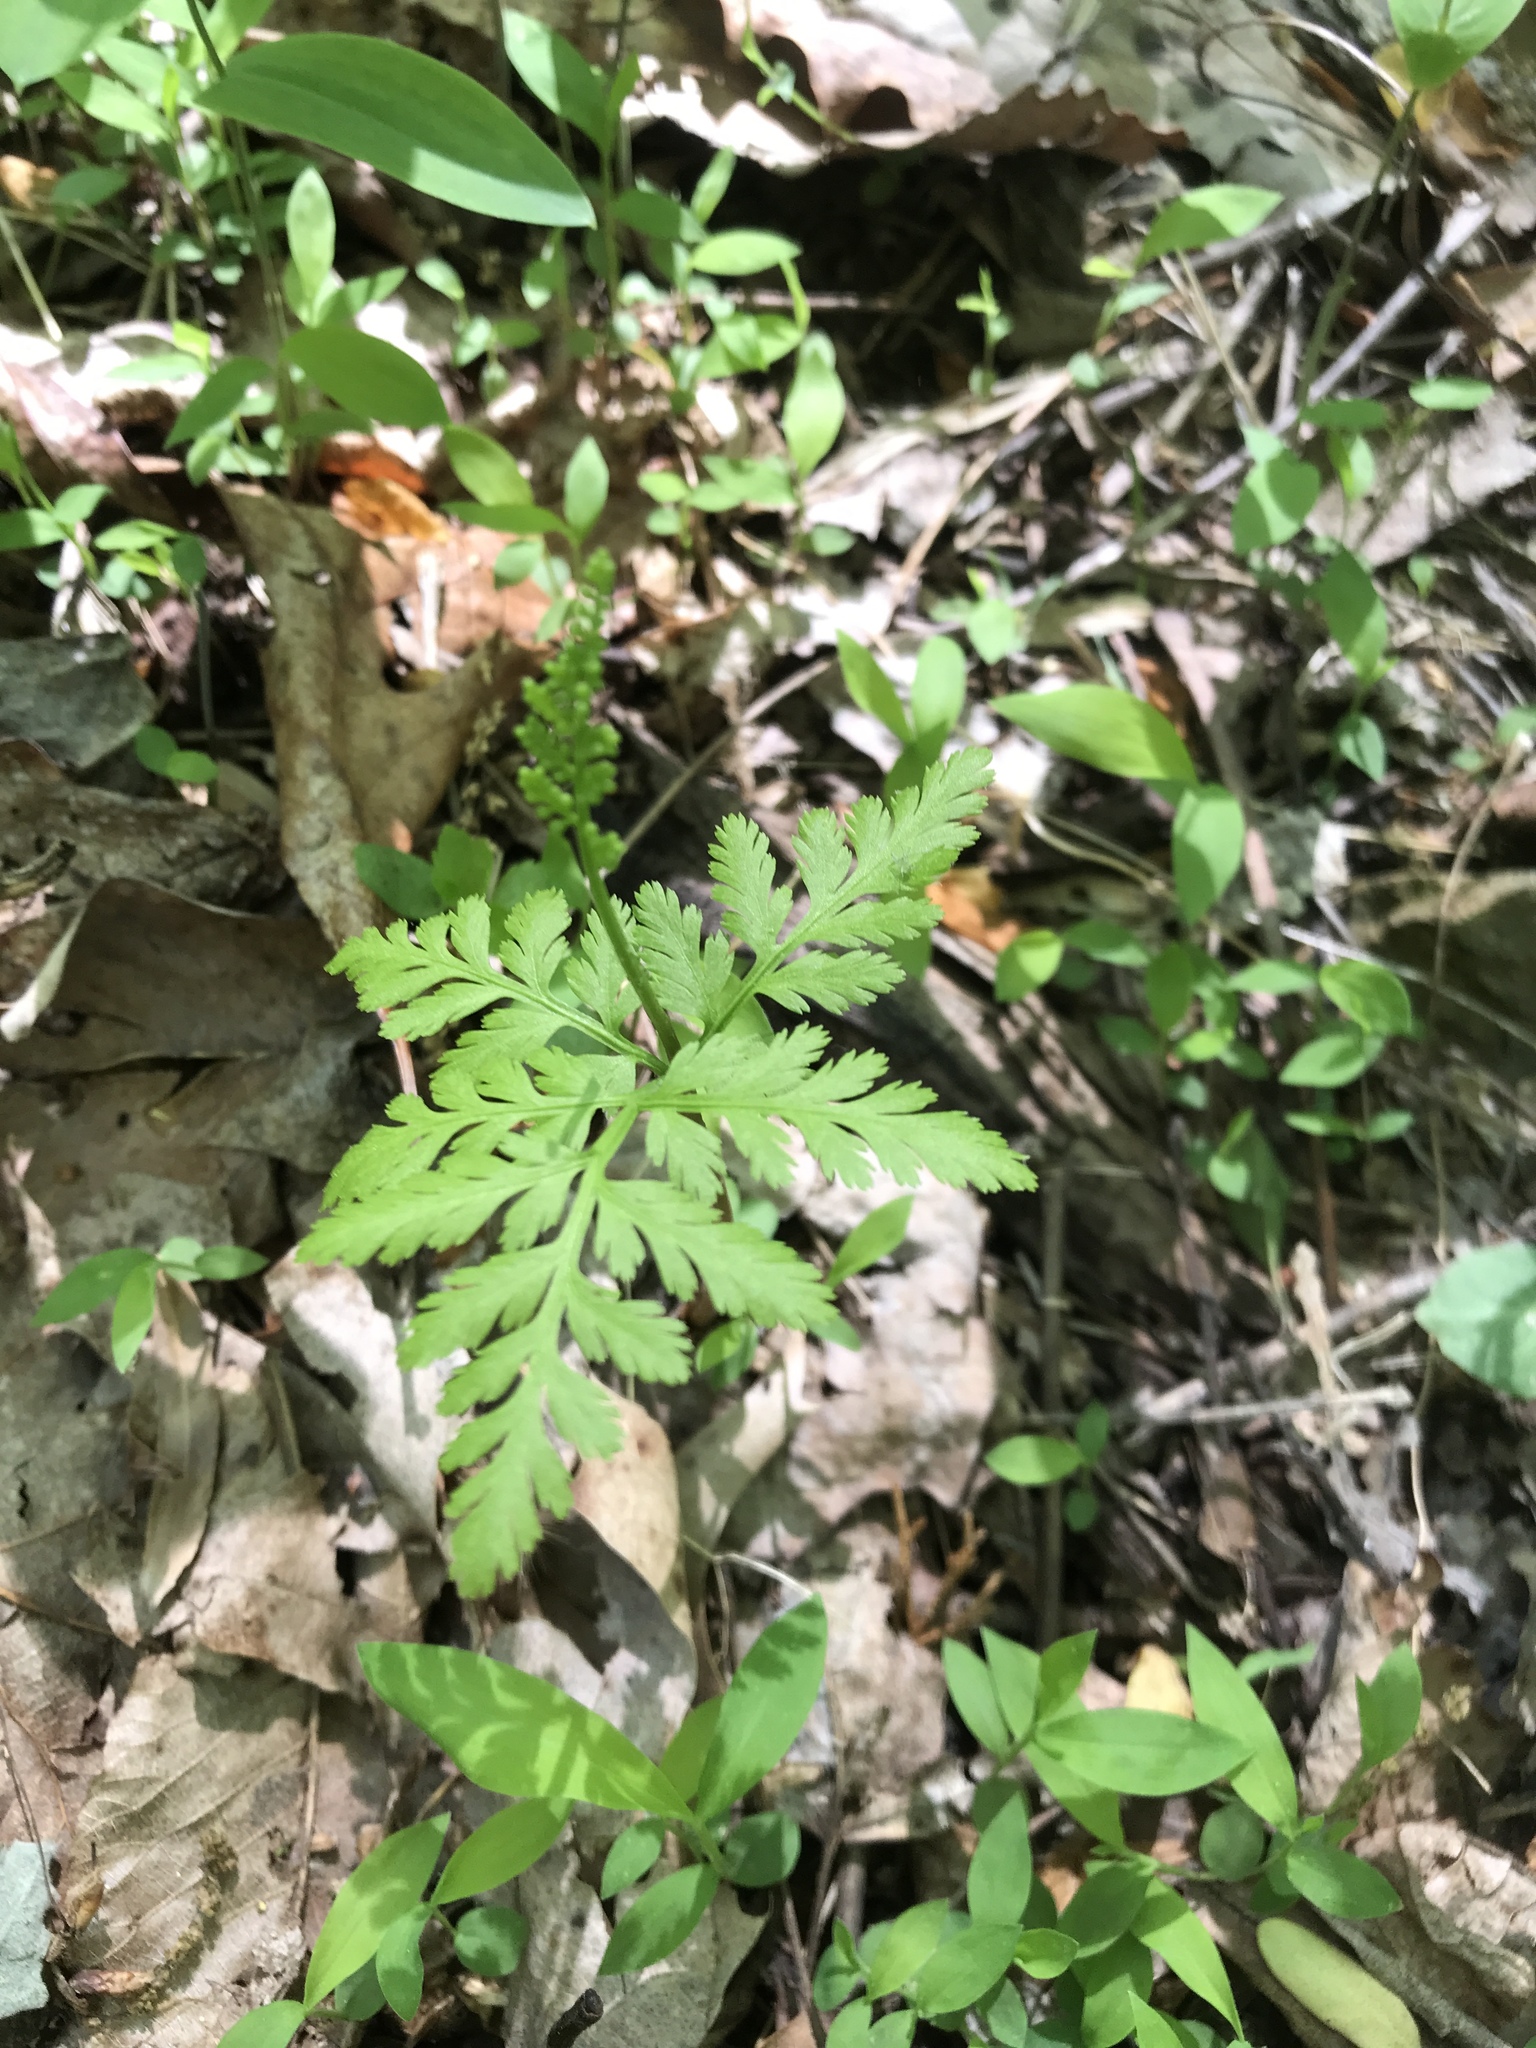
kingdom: Plantae
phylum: Tracheophyta
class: Polypodiopsida
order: Ophioglossales
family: Ophioglossaceae
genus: Botrypus
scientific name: Botrypus virginianus
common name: Common grapefern
